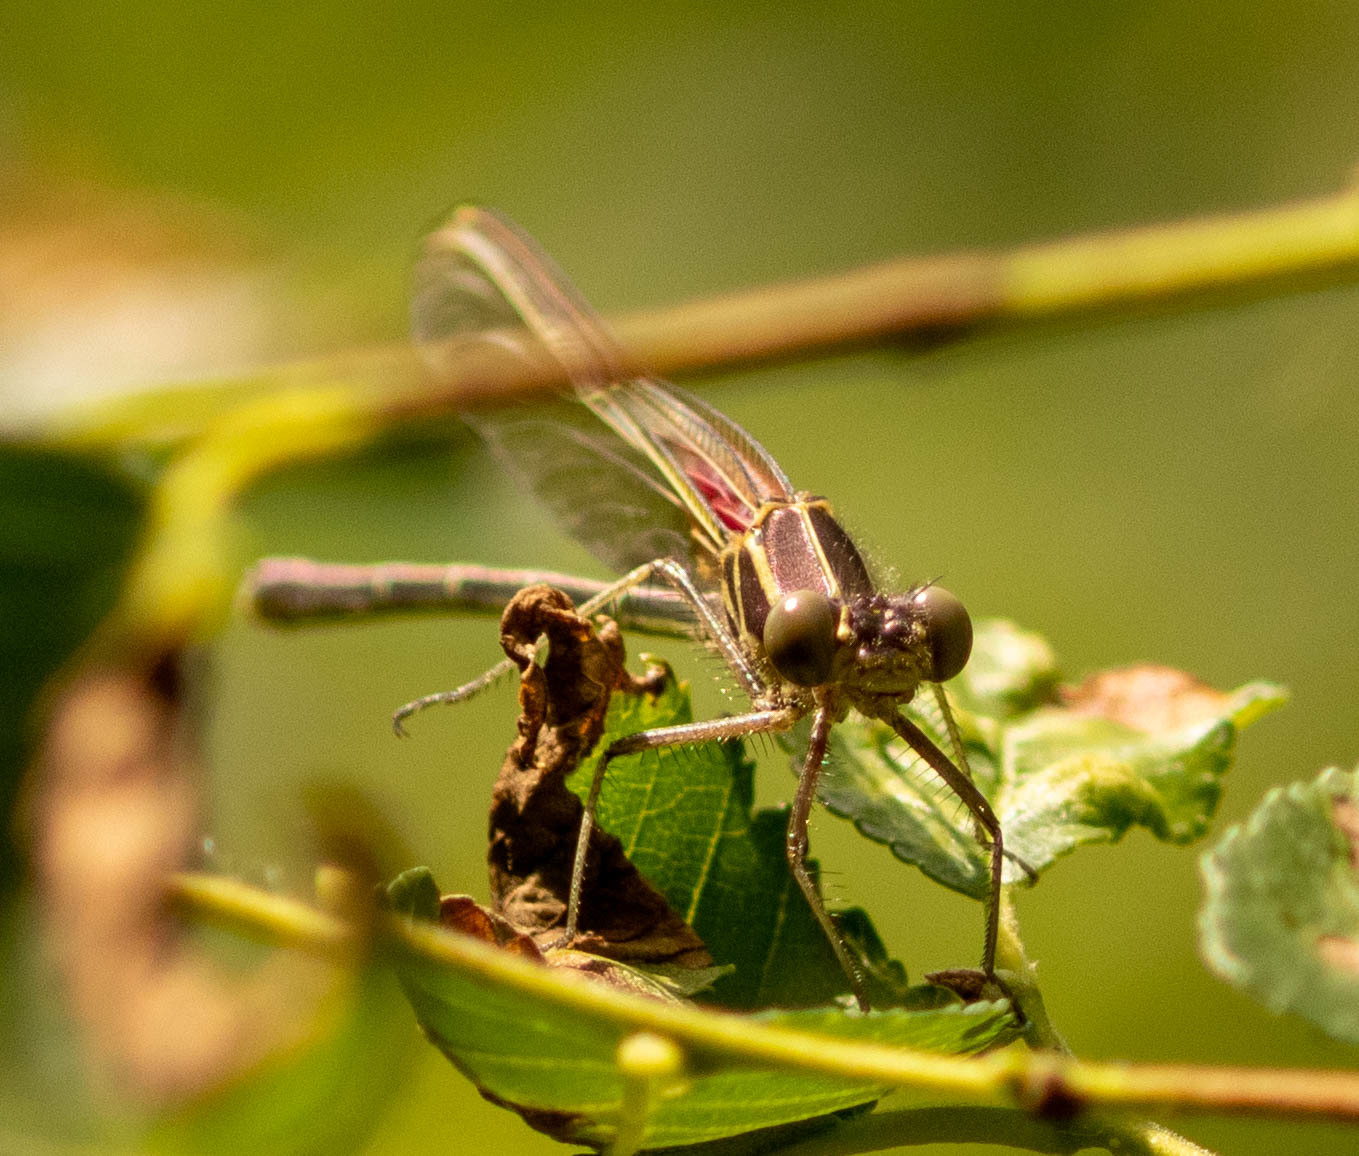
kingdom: Animalia
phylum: Arthropoda
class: Insecta
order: Odonata
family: Calopterygidae
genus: Hetaerina
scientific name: Hetaerina americana
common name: American rubyspot
